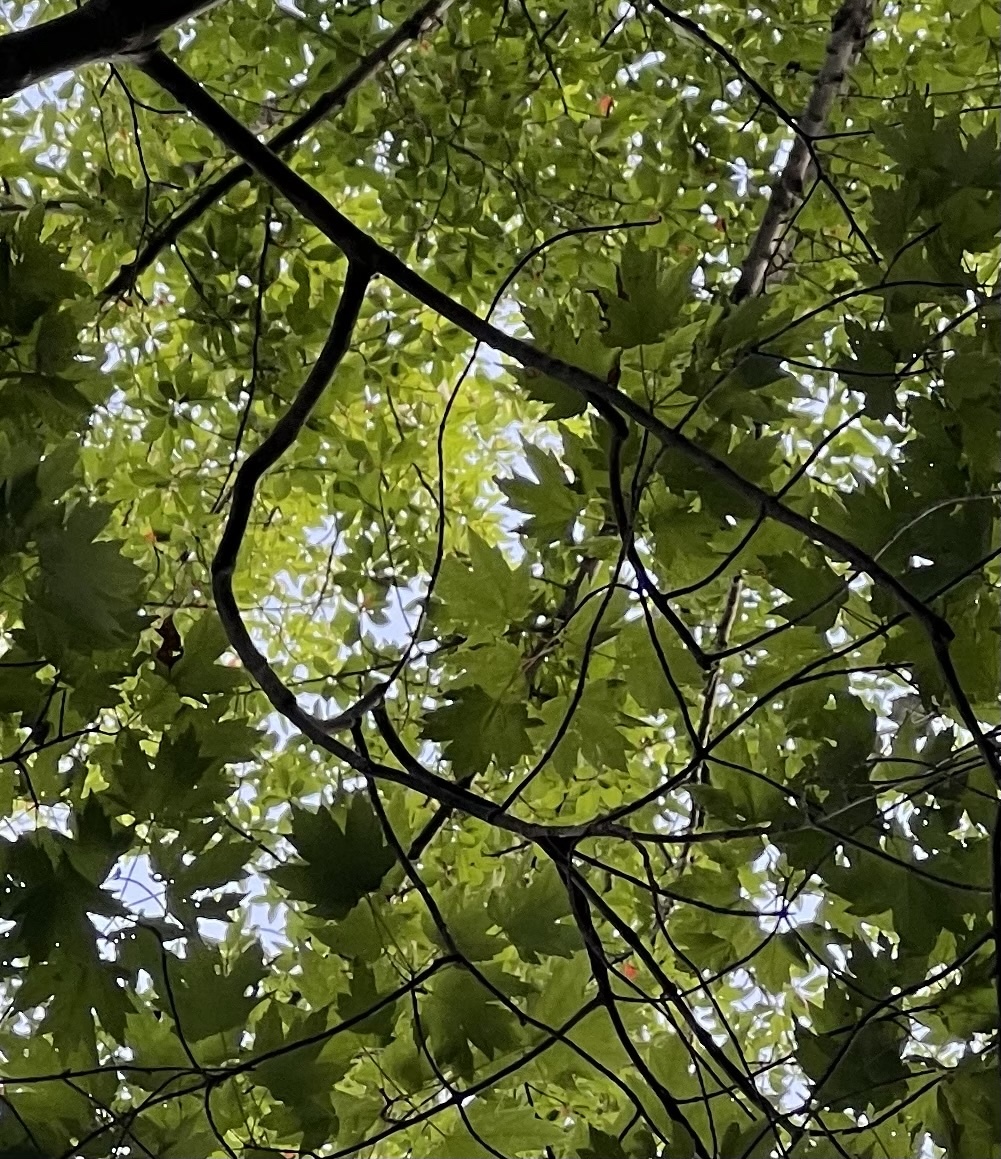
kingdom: Plantae
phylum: Tracheophyta
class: Magnoliopsida
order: Sapindales
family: Sapindaceae
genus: Acer
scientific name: Acer saccharinum
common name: Silver maple
